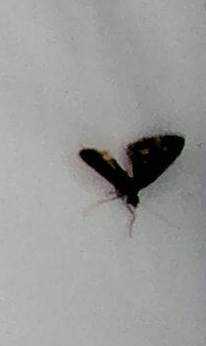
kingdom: Animalia
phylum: Arthropoda
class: Insecta
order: Lepidoptera
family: Geometridae
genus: Phrissogonus
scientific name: Phrissogonus laticostata
